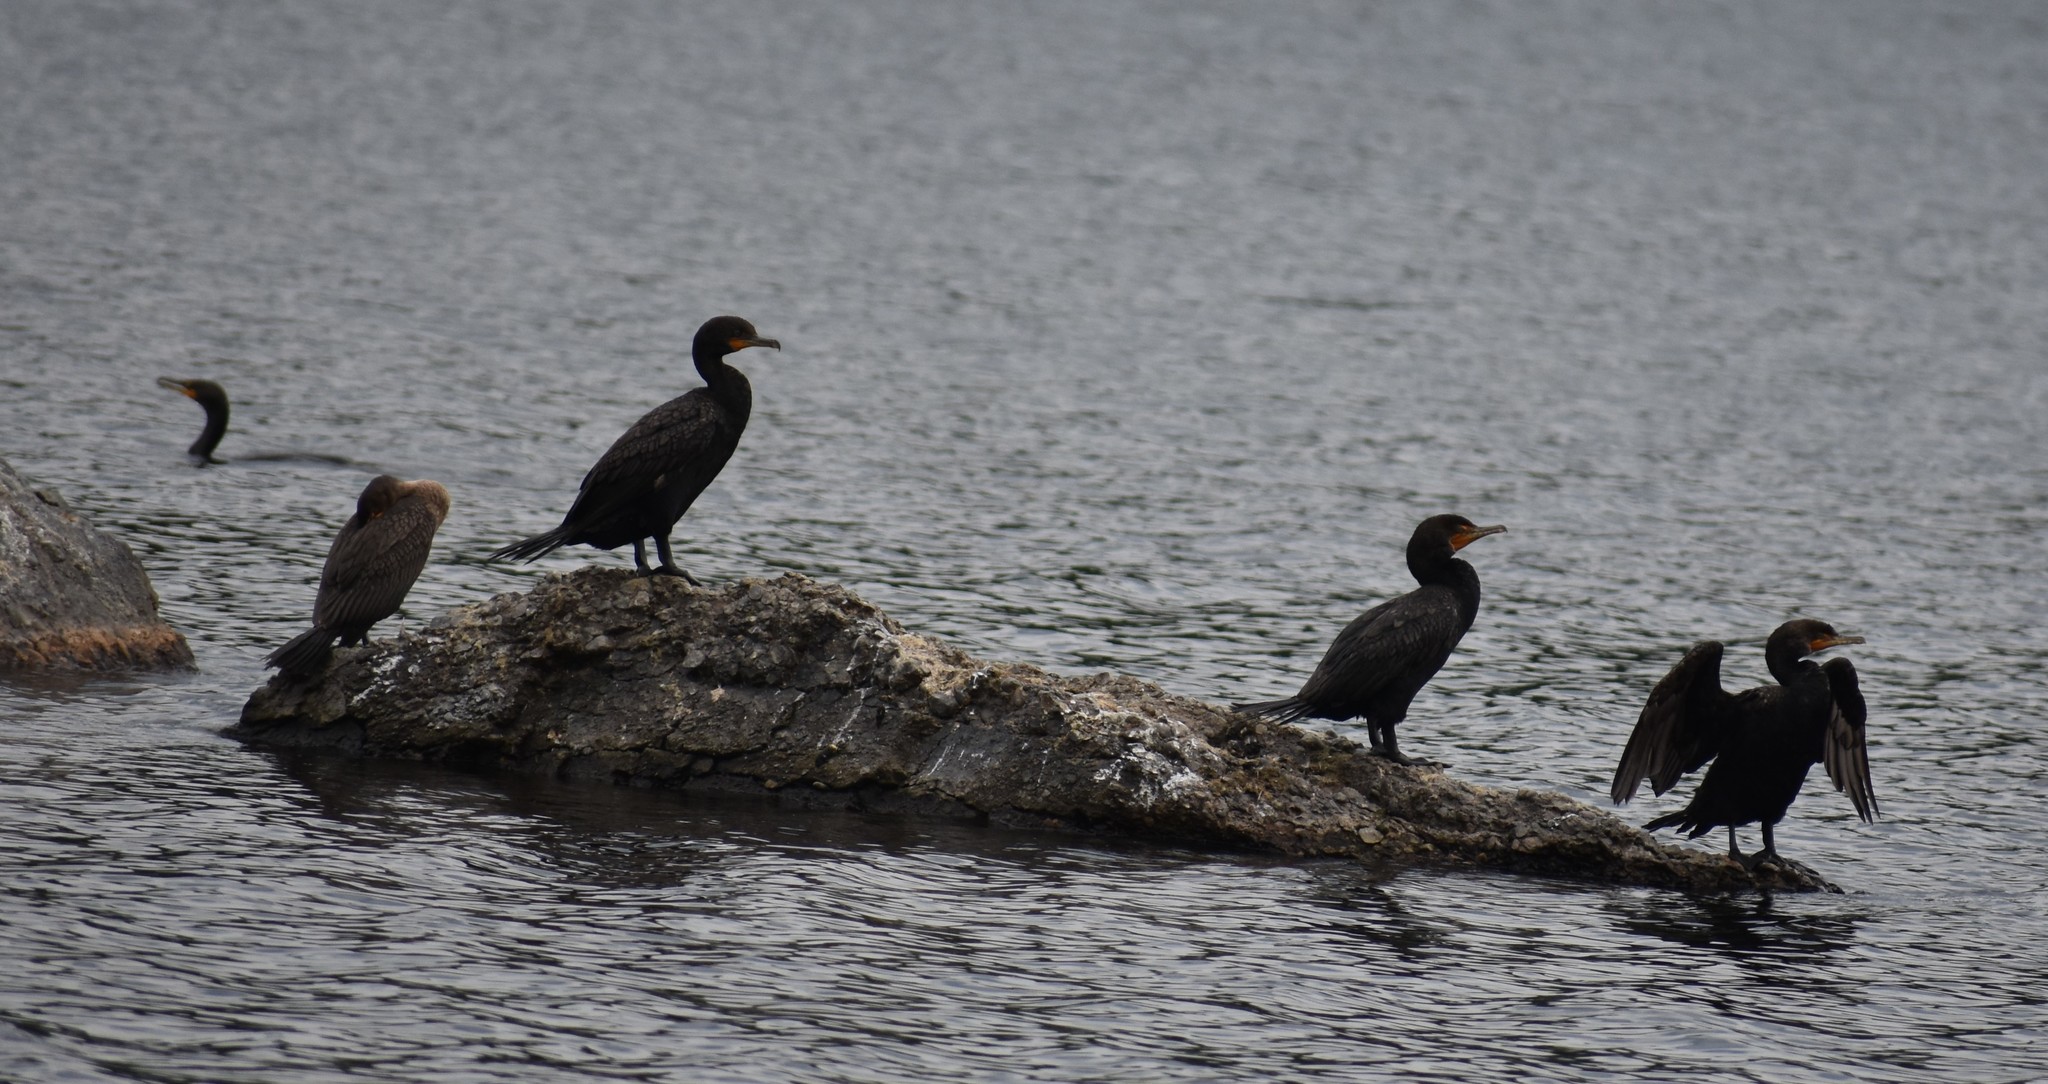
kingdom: Animalia
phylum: Chordata
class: Aves
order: Suliformes
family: Phalacrocoracidae
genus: Phalacrocorax
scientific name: Phalacrocorax auritus
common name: Double-crested cormorant
